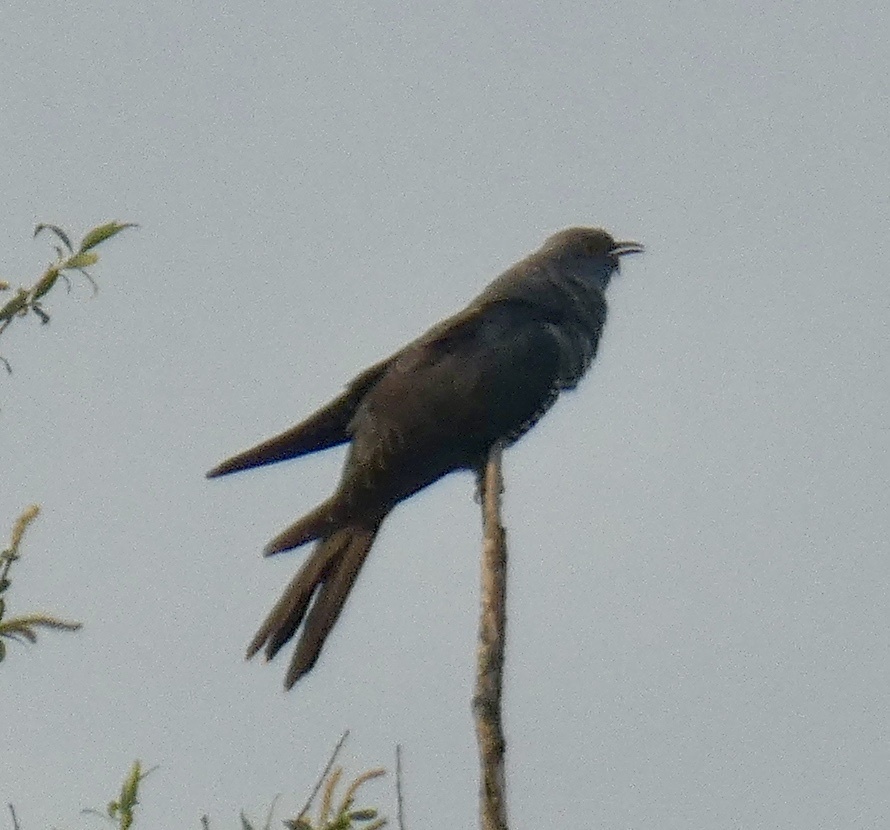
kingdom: Animalia
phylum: Chordata
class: Aves
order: Cuculiformes
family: Cuculidae
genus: Cuculus
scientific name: Cuculus canorus
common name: Common cuckoo
